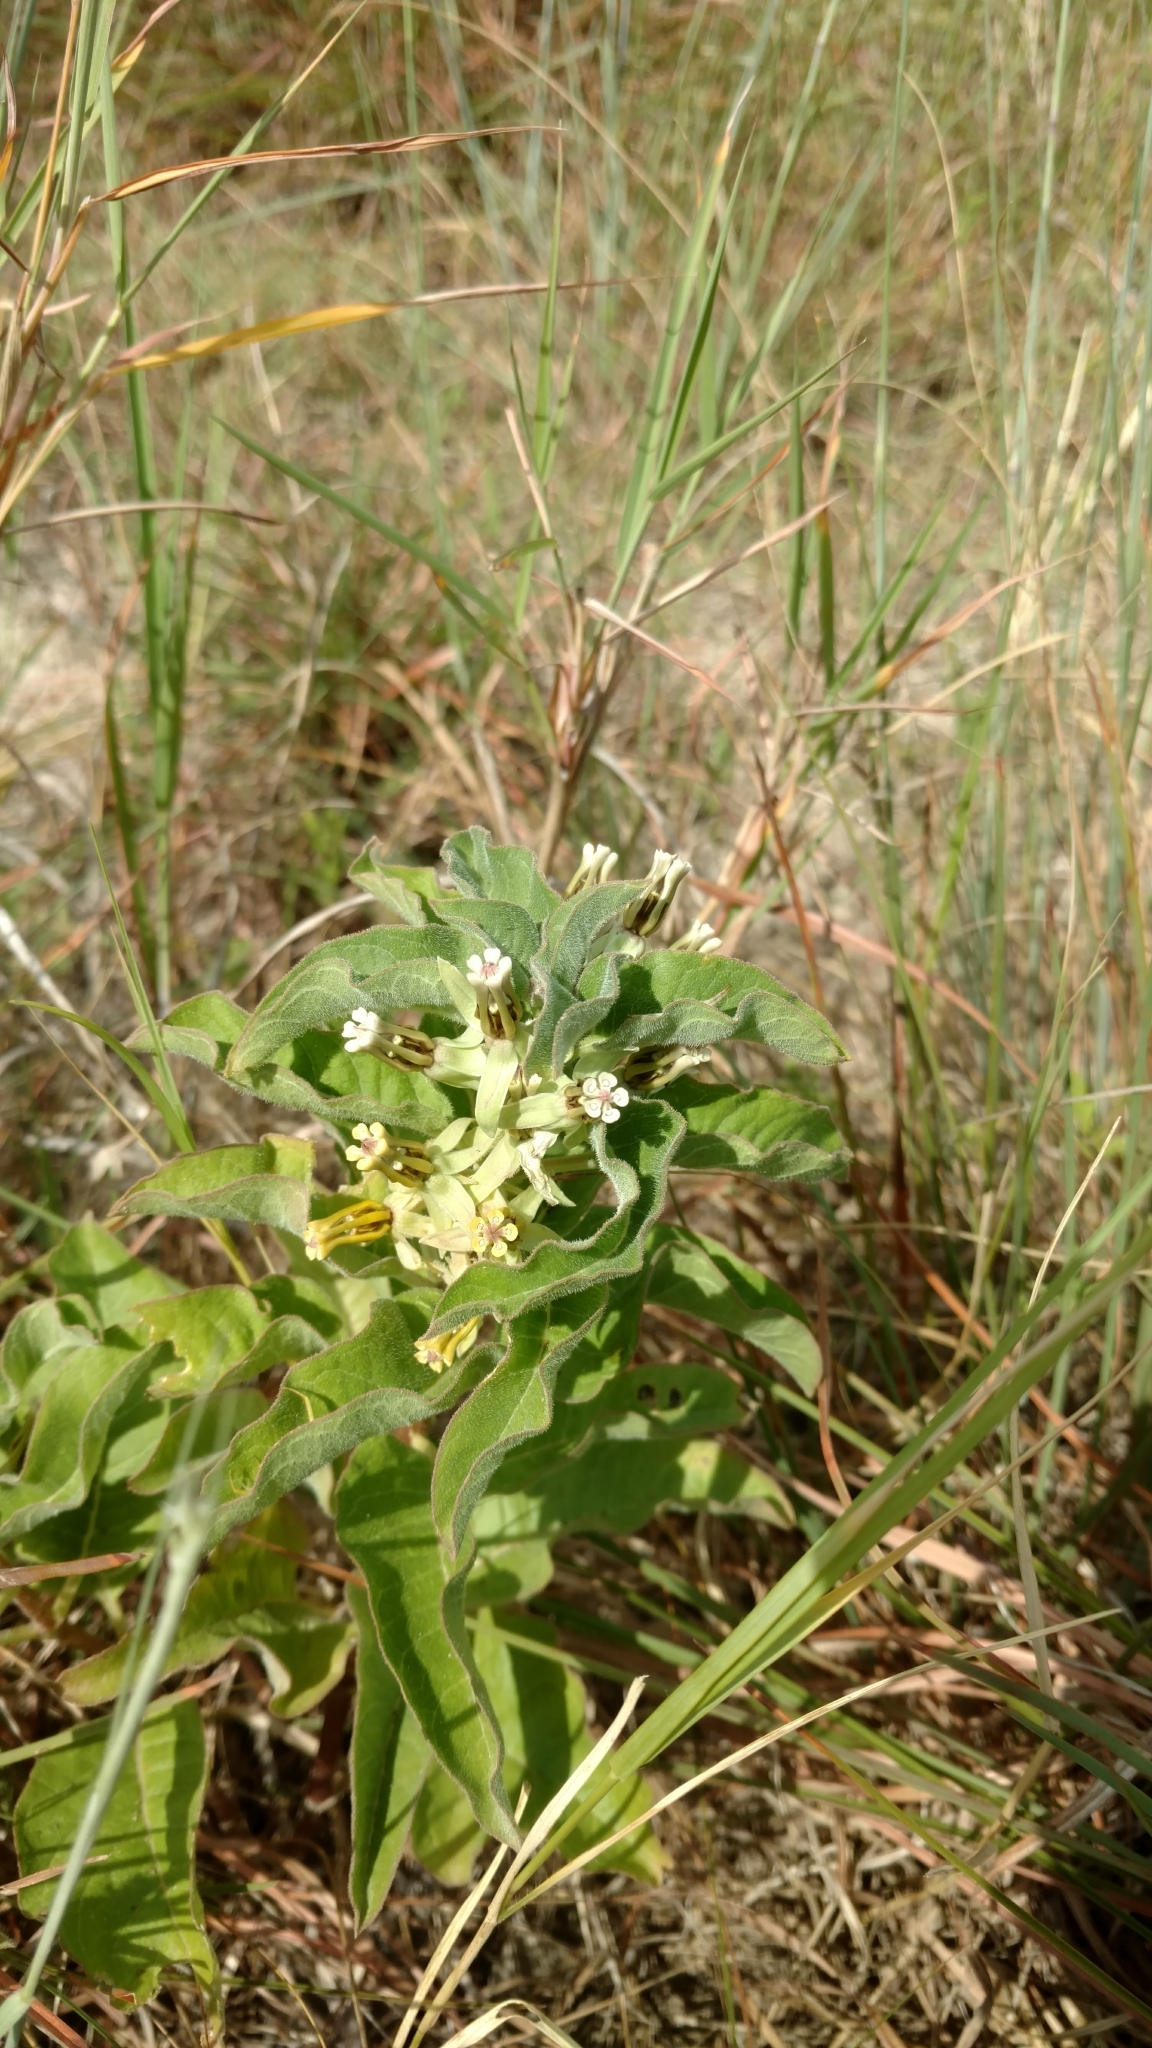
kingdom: Plantae
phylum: Tracheophyta
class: Magnoliopsida
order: Gentianales
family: Apocynaceae
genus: Asclepias
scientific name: Asclepias oenotheroides
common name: Zizotes milkweed
